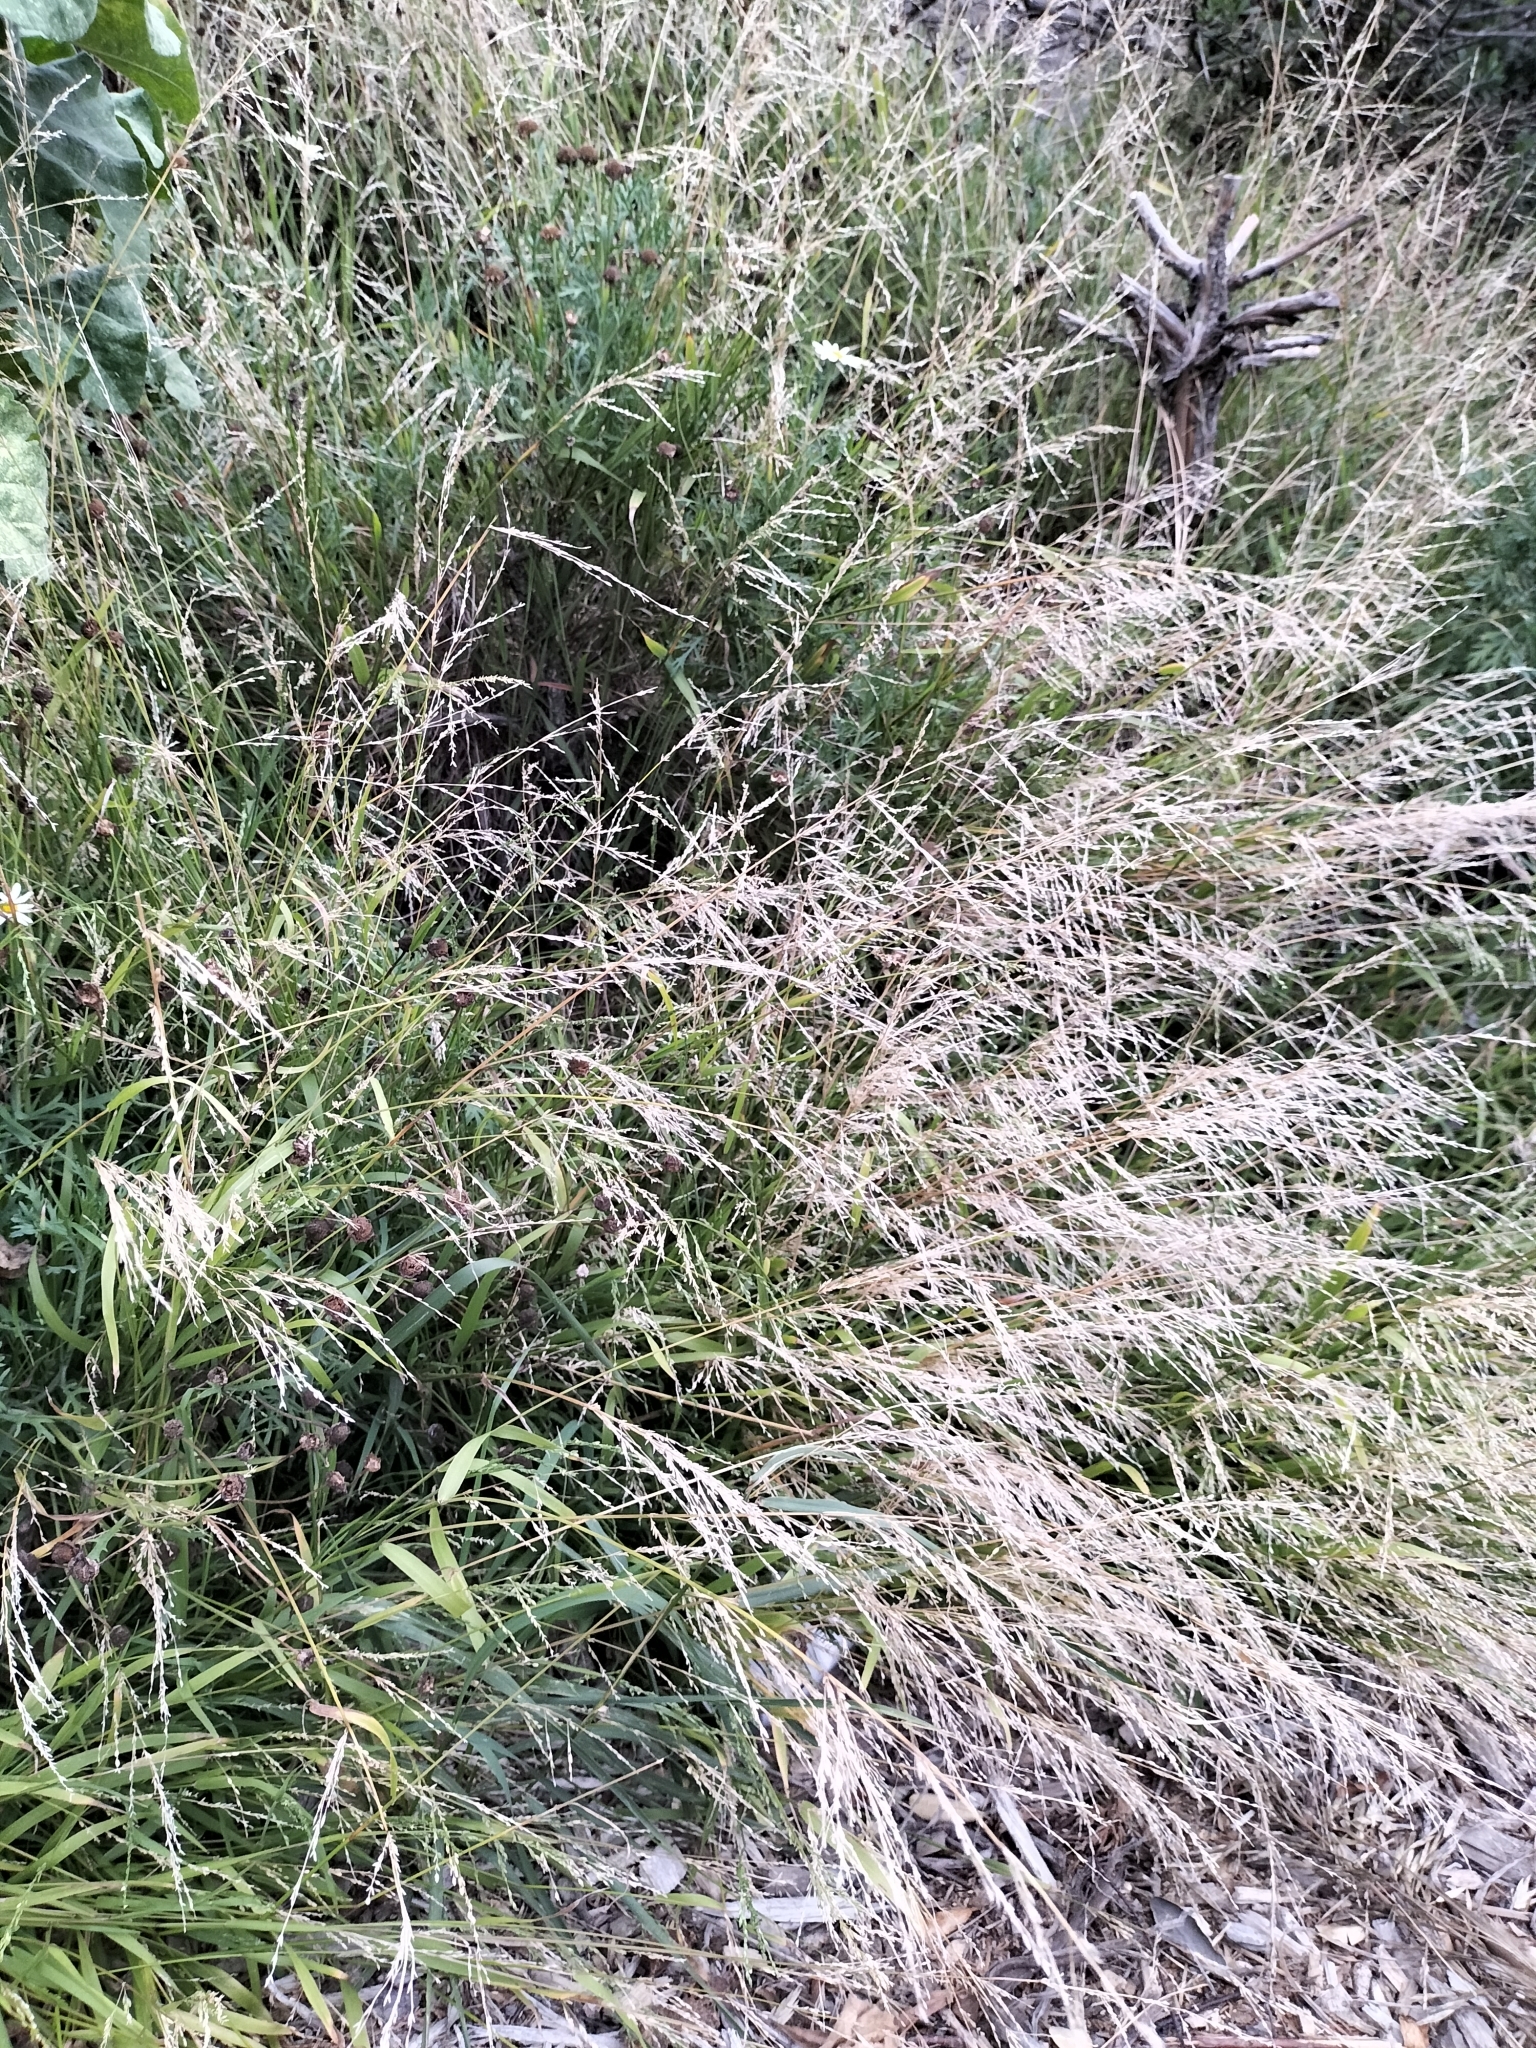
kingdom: Plantae
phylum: Tracheophyta
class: Liliopsida
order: Poales
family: Poaceae
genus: Ehrharta
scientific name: Ehrharta erecta
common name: Panic veldtgrass
